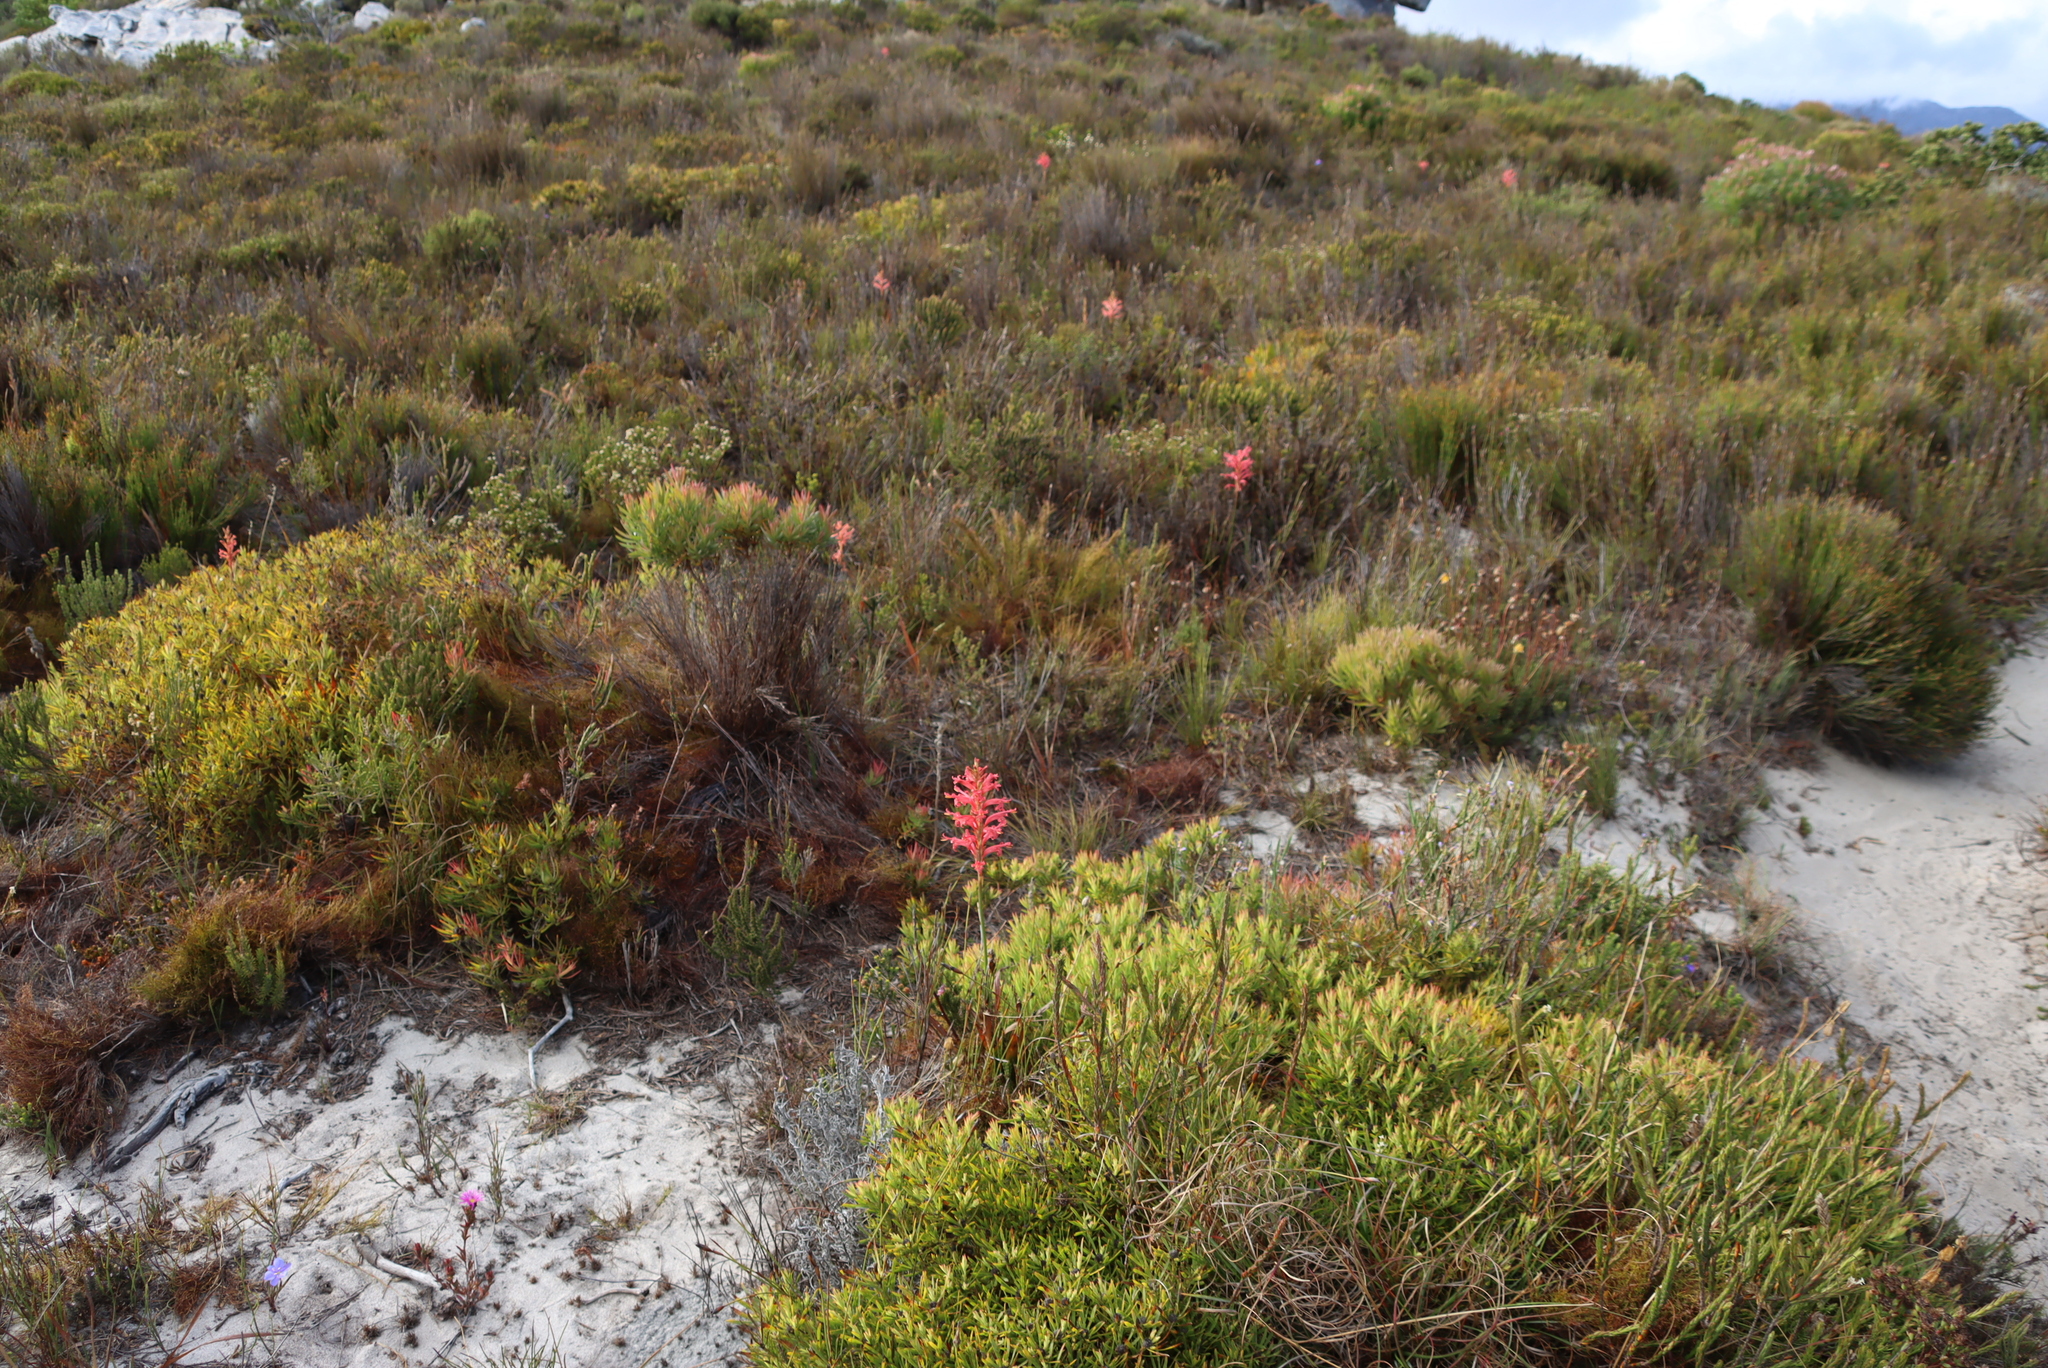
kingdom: Plantae
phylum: Tracheophyta
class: Magnoliopsida
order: Proteales
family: Proteaceae
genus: Leucadendron
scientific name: Leucadendron salignum
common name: Common sunshine conebush
